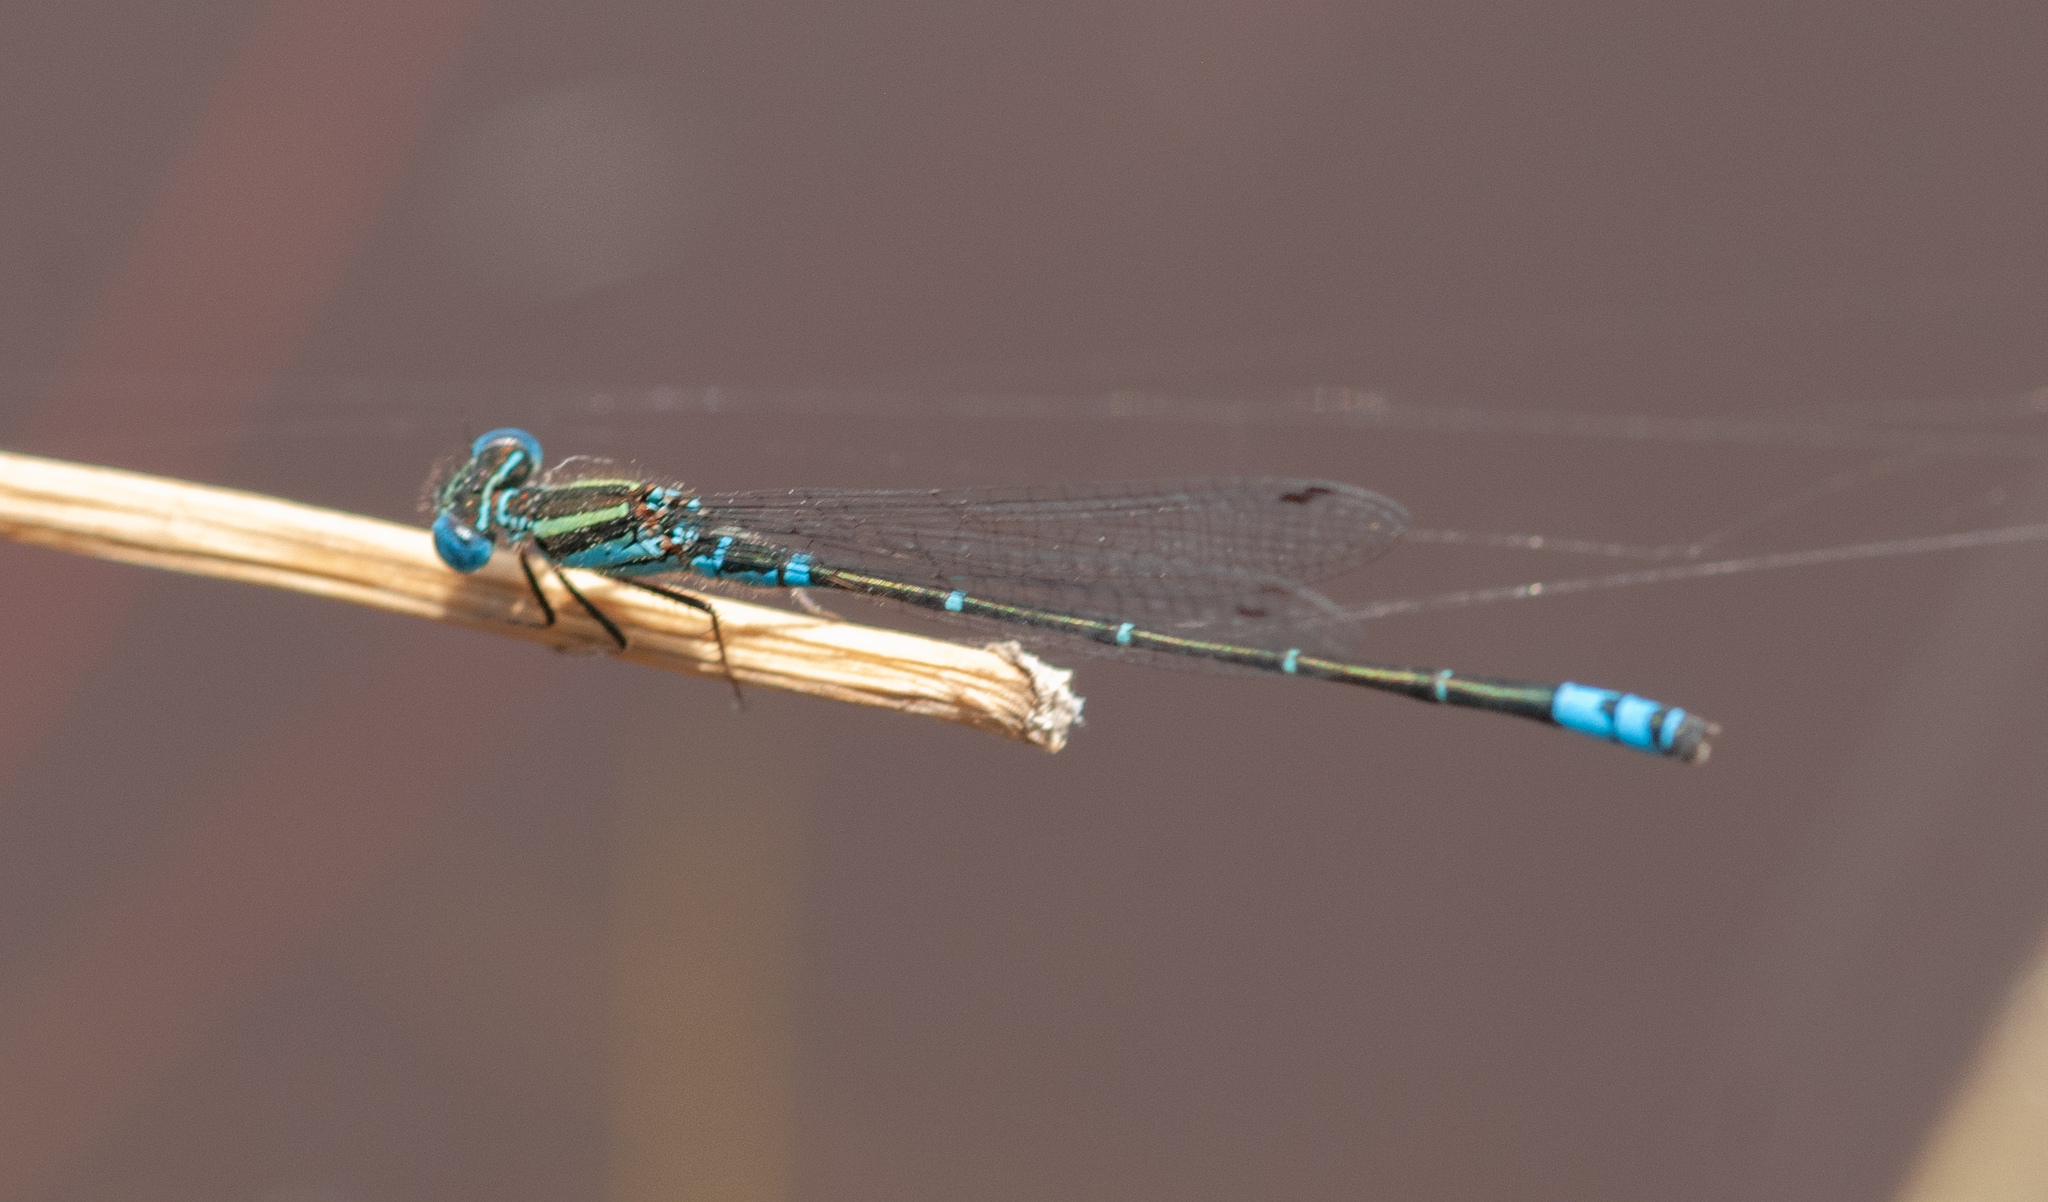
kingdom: Animalia
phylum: Arthropoda
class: Insecta
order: Odonata
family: Coenagrionidae
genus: Austroagrion
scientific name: Austroagrion watsoni
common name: Eastern billabongfly
